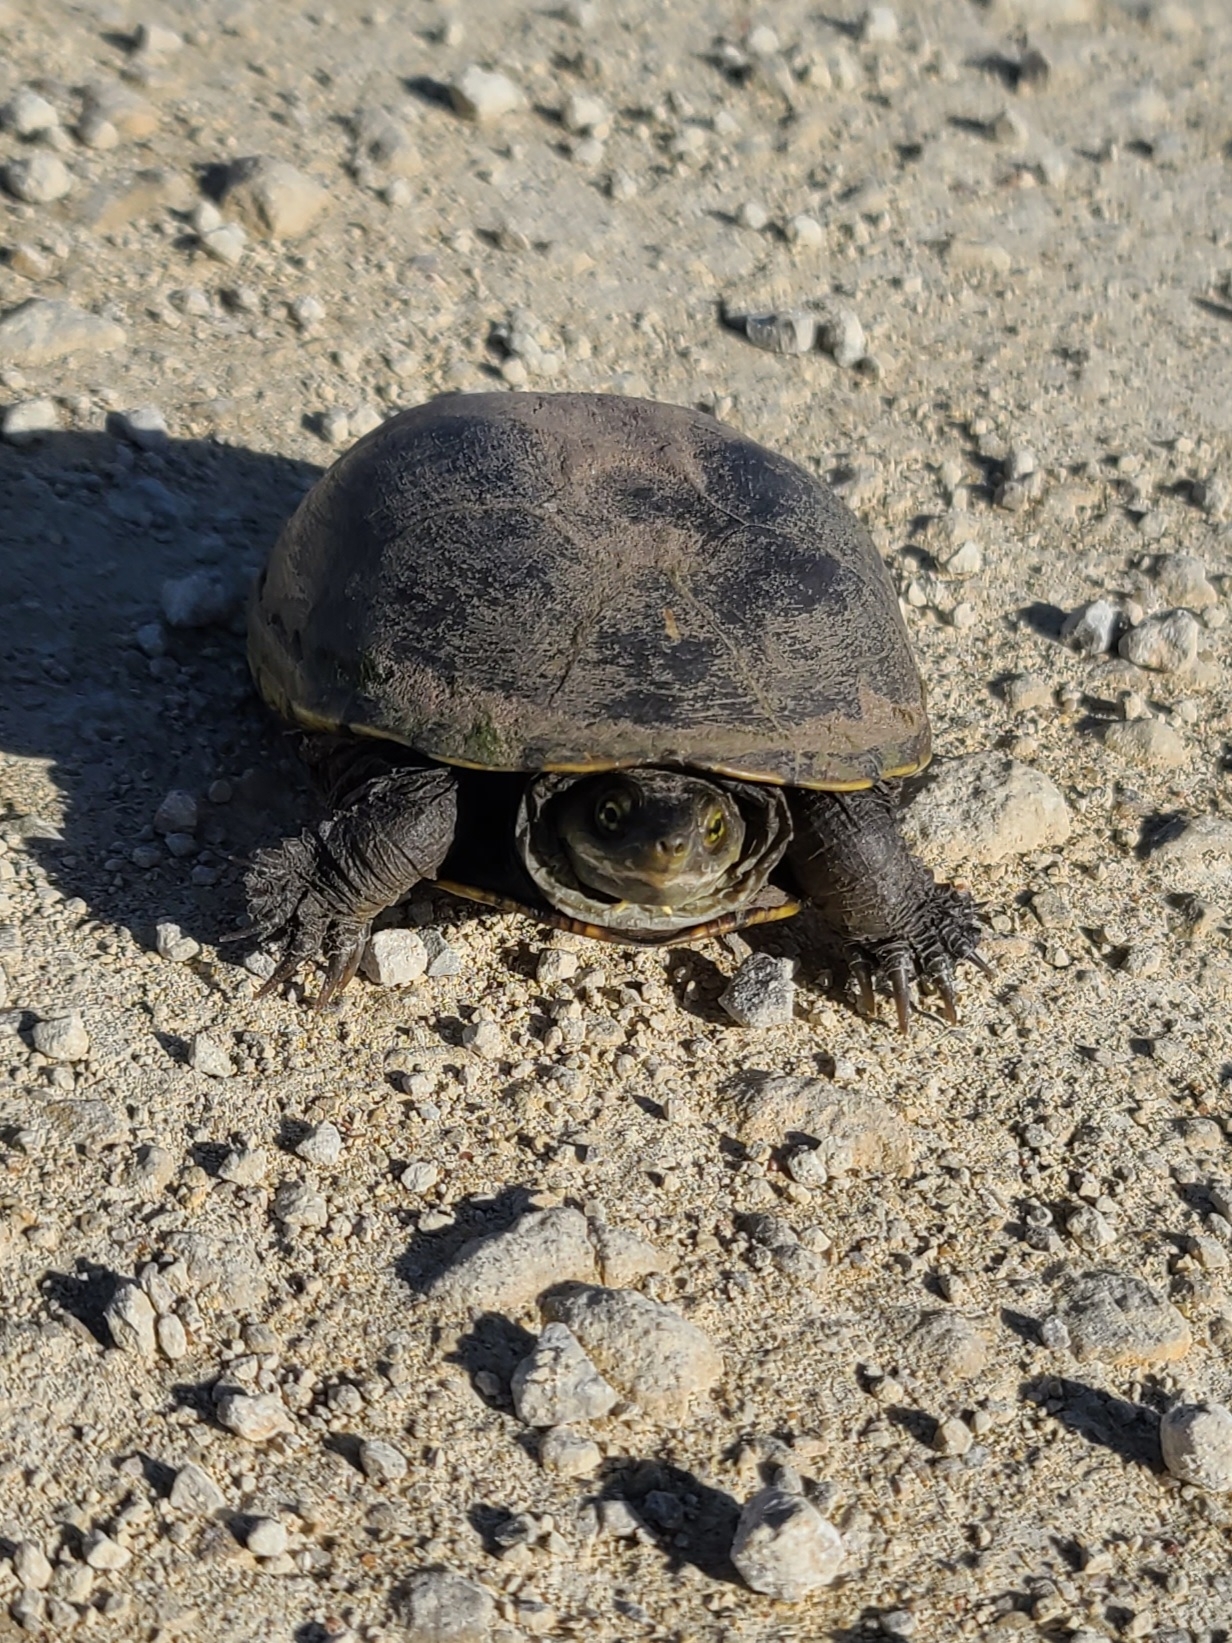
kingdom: Animalia
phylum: Chordata
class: Testudines
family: Kinosternidae
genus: Kinosternon
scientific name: Kinosternon flavescens
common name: Yellow mud turtle
